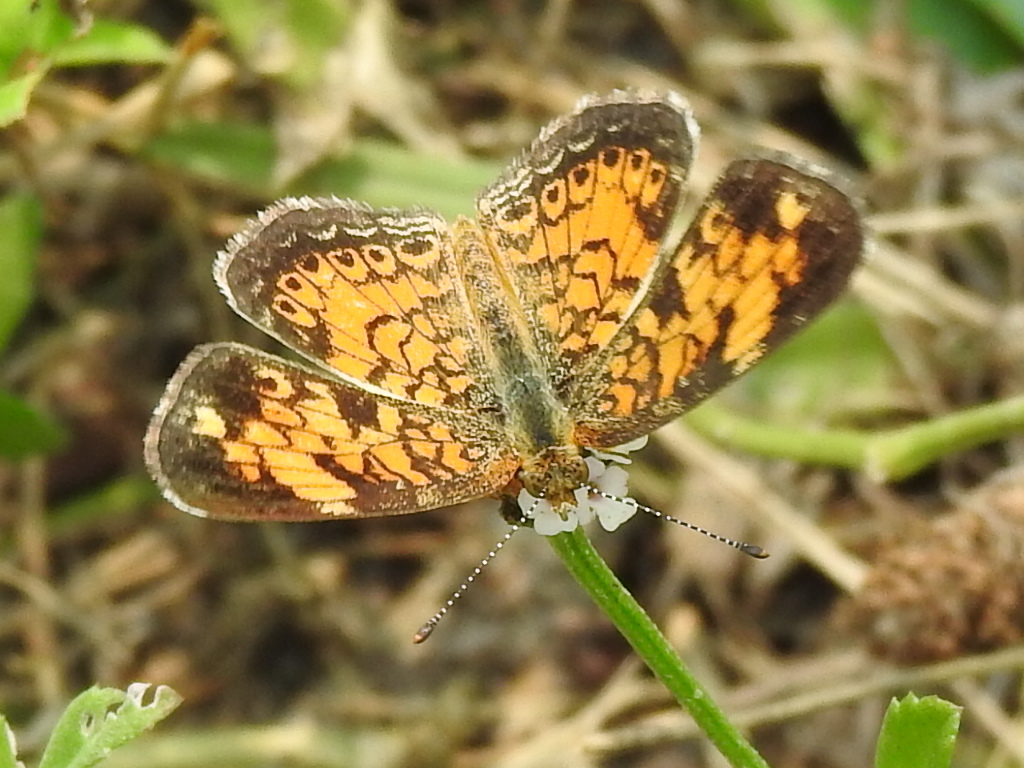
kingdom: Animalia
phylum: Arthropoda
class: Insecta
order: Lepidoptera
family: Nymphalidae
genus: Phyciodes
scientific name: Phyciodes tharos
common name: Pearl crescent
